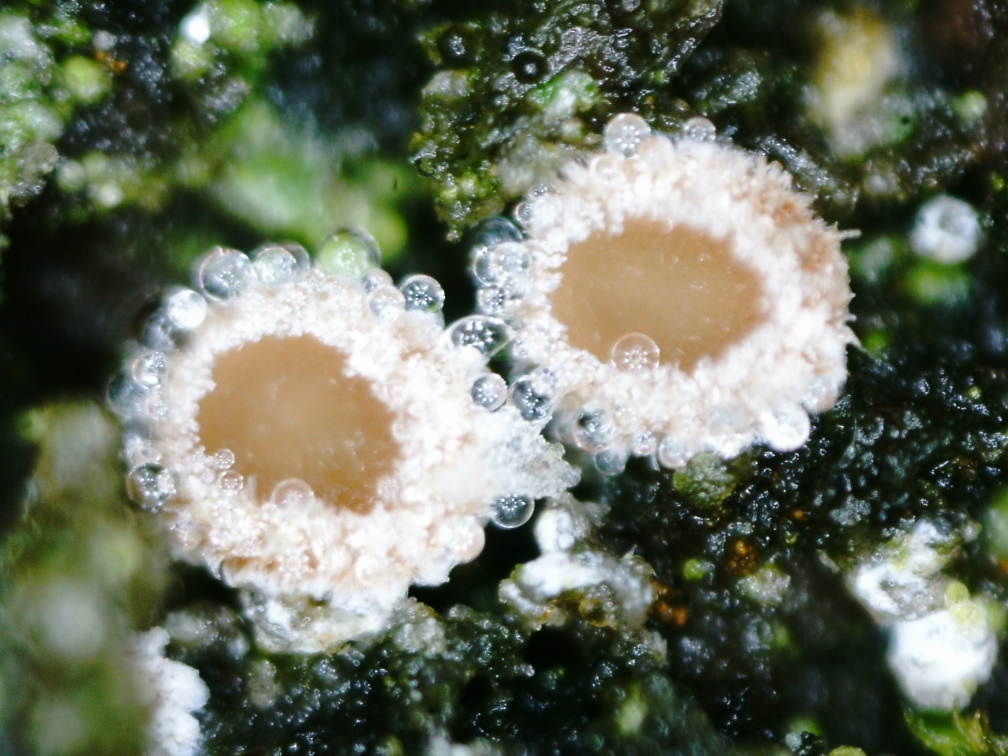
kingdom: Fungi
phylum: Ascomycota
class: Leotiomycetes
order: Helotiales
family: Lachnaceae
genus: Lachnum
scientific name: Lachnum corticale
